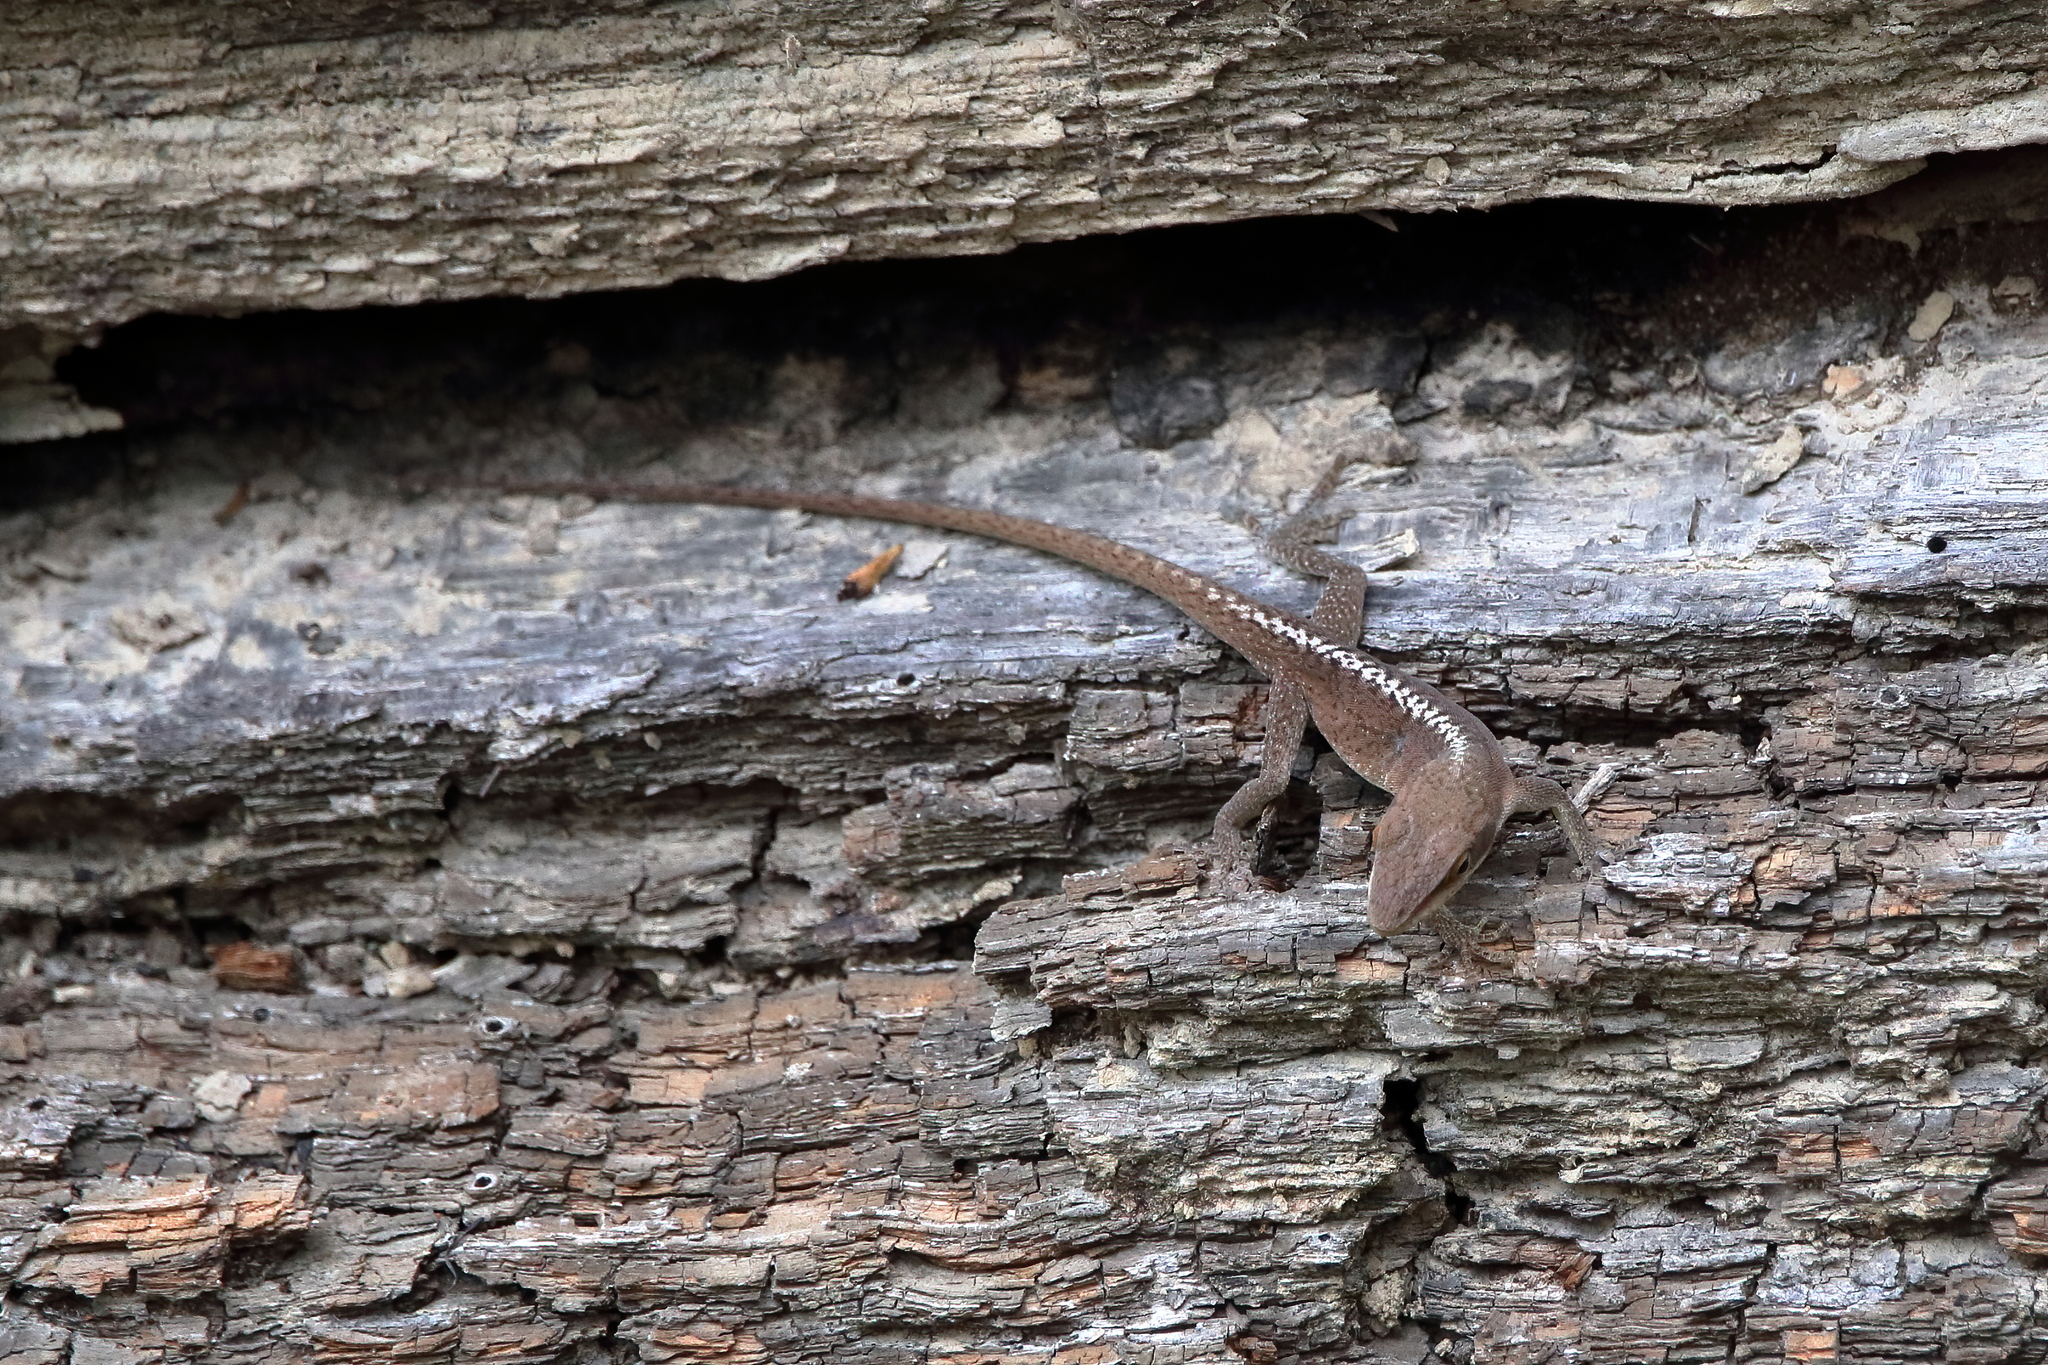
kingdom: Animalia
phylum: Chordata
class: Squamata
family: Dactyloidae
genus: Anolis
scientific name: Anolis carolinensis
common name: Green anole
